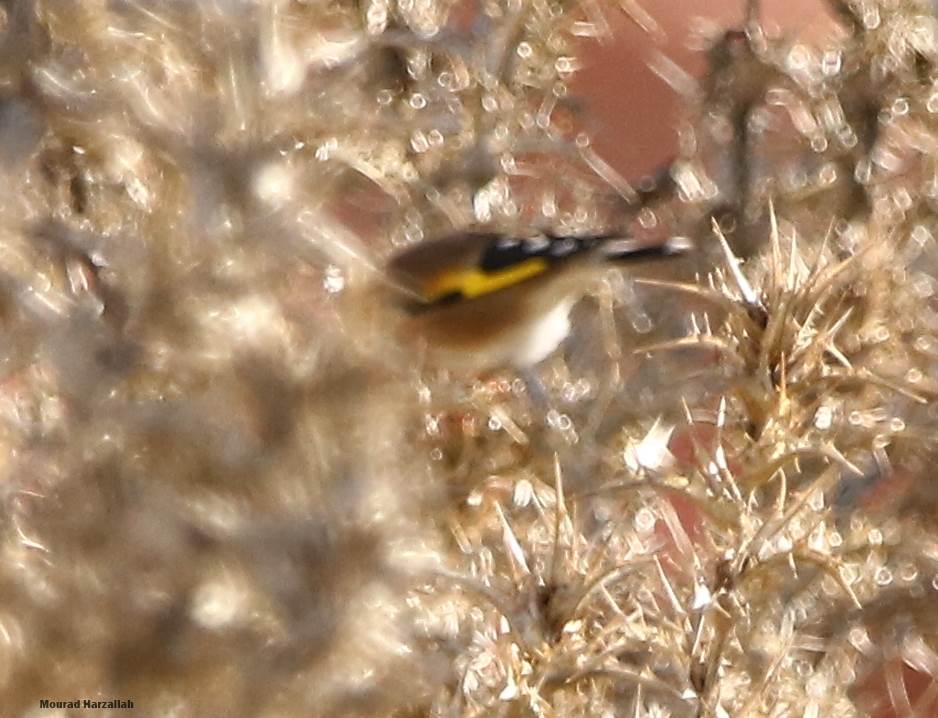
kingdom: Animalia
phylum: Chordata
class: Aves
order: Passeriformes
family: Fringillidae
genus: Carduelis
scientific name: Carduelis carduelis
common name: European goldfinch
